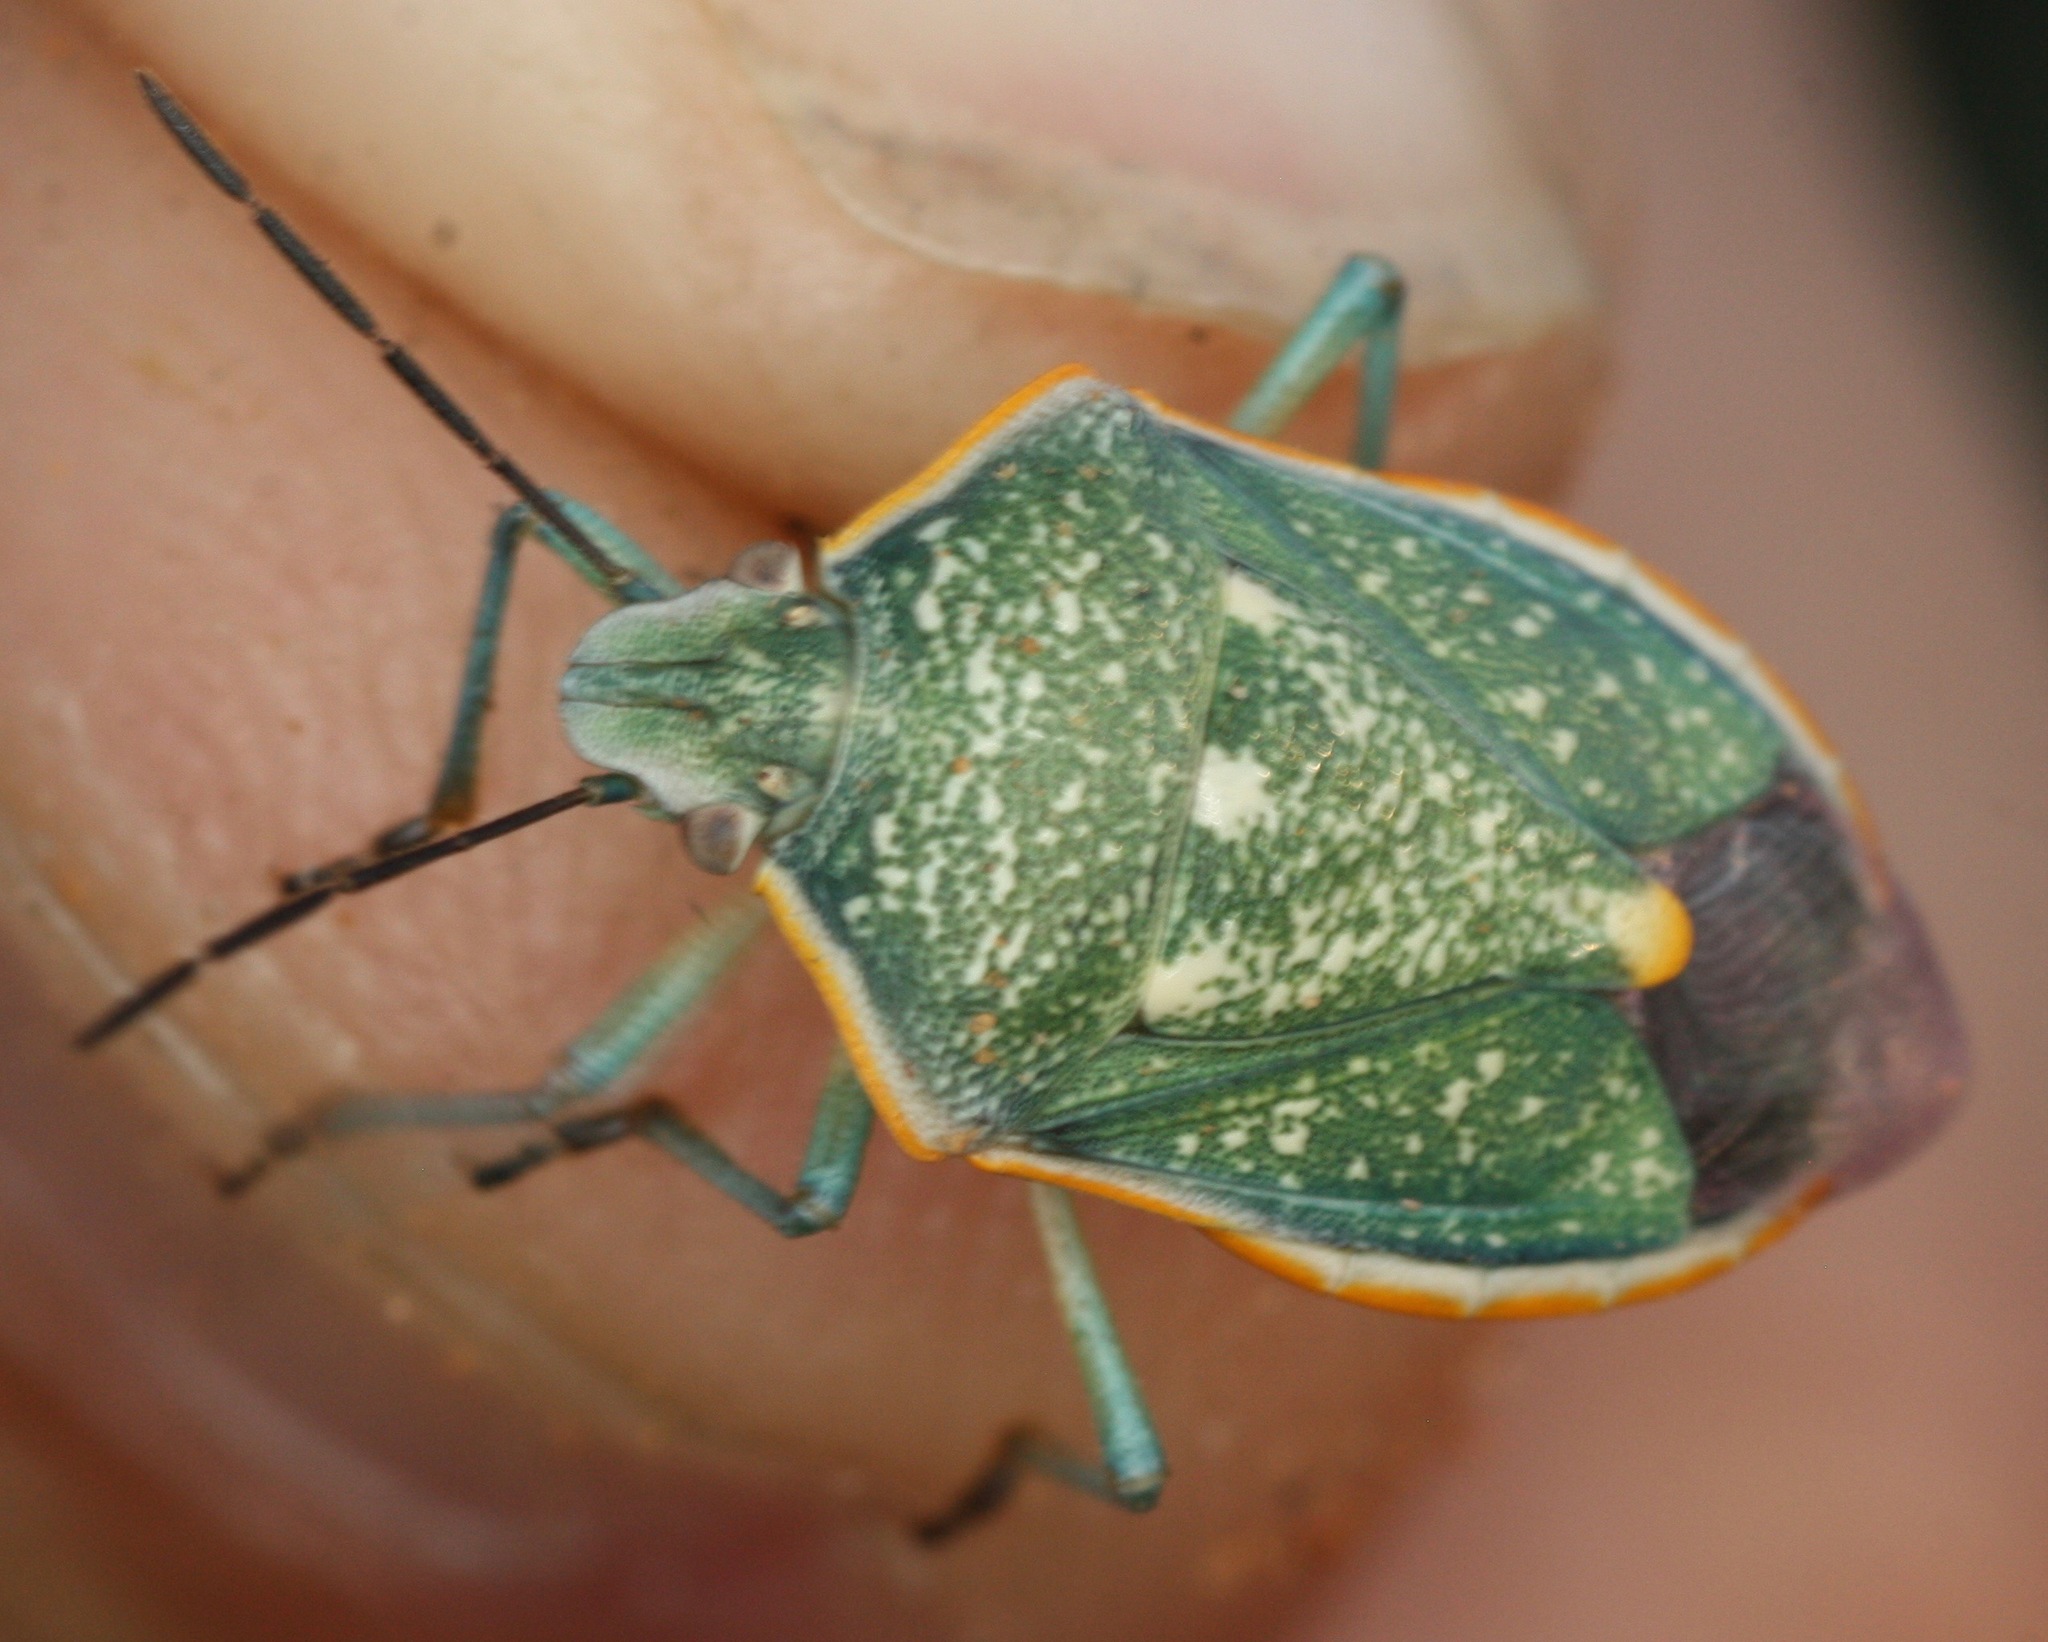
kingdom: Animalia
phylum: Arthropoda
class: Insecta
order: Hemiptera
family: Pentatomidae
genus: Chlorochroa
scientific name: Chlorochroa sayi
